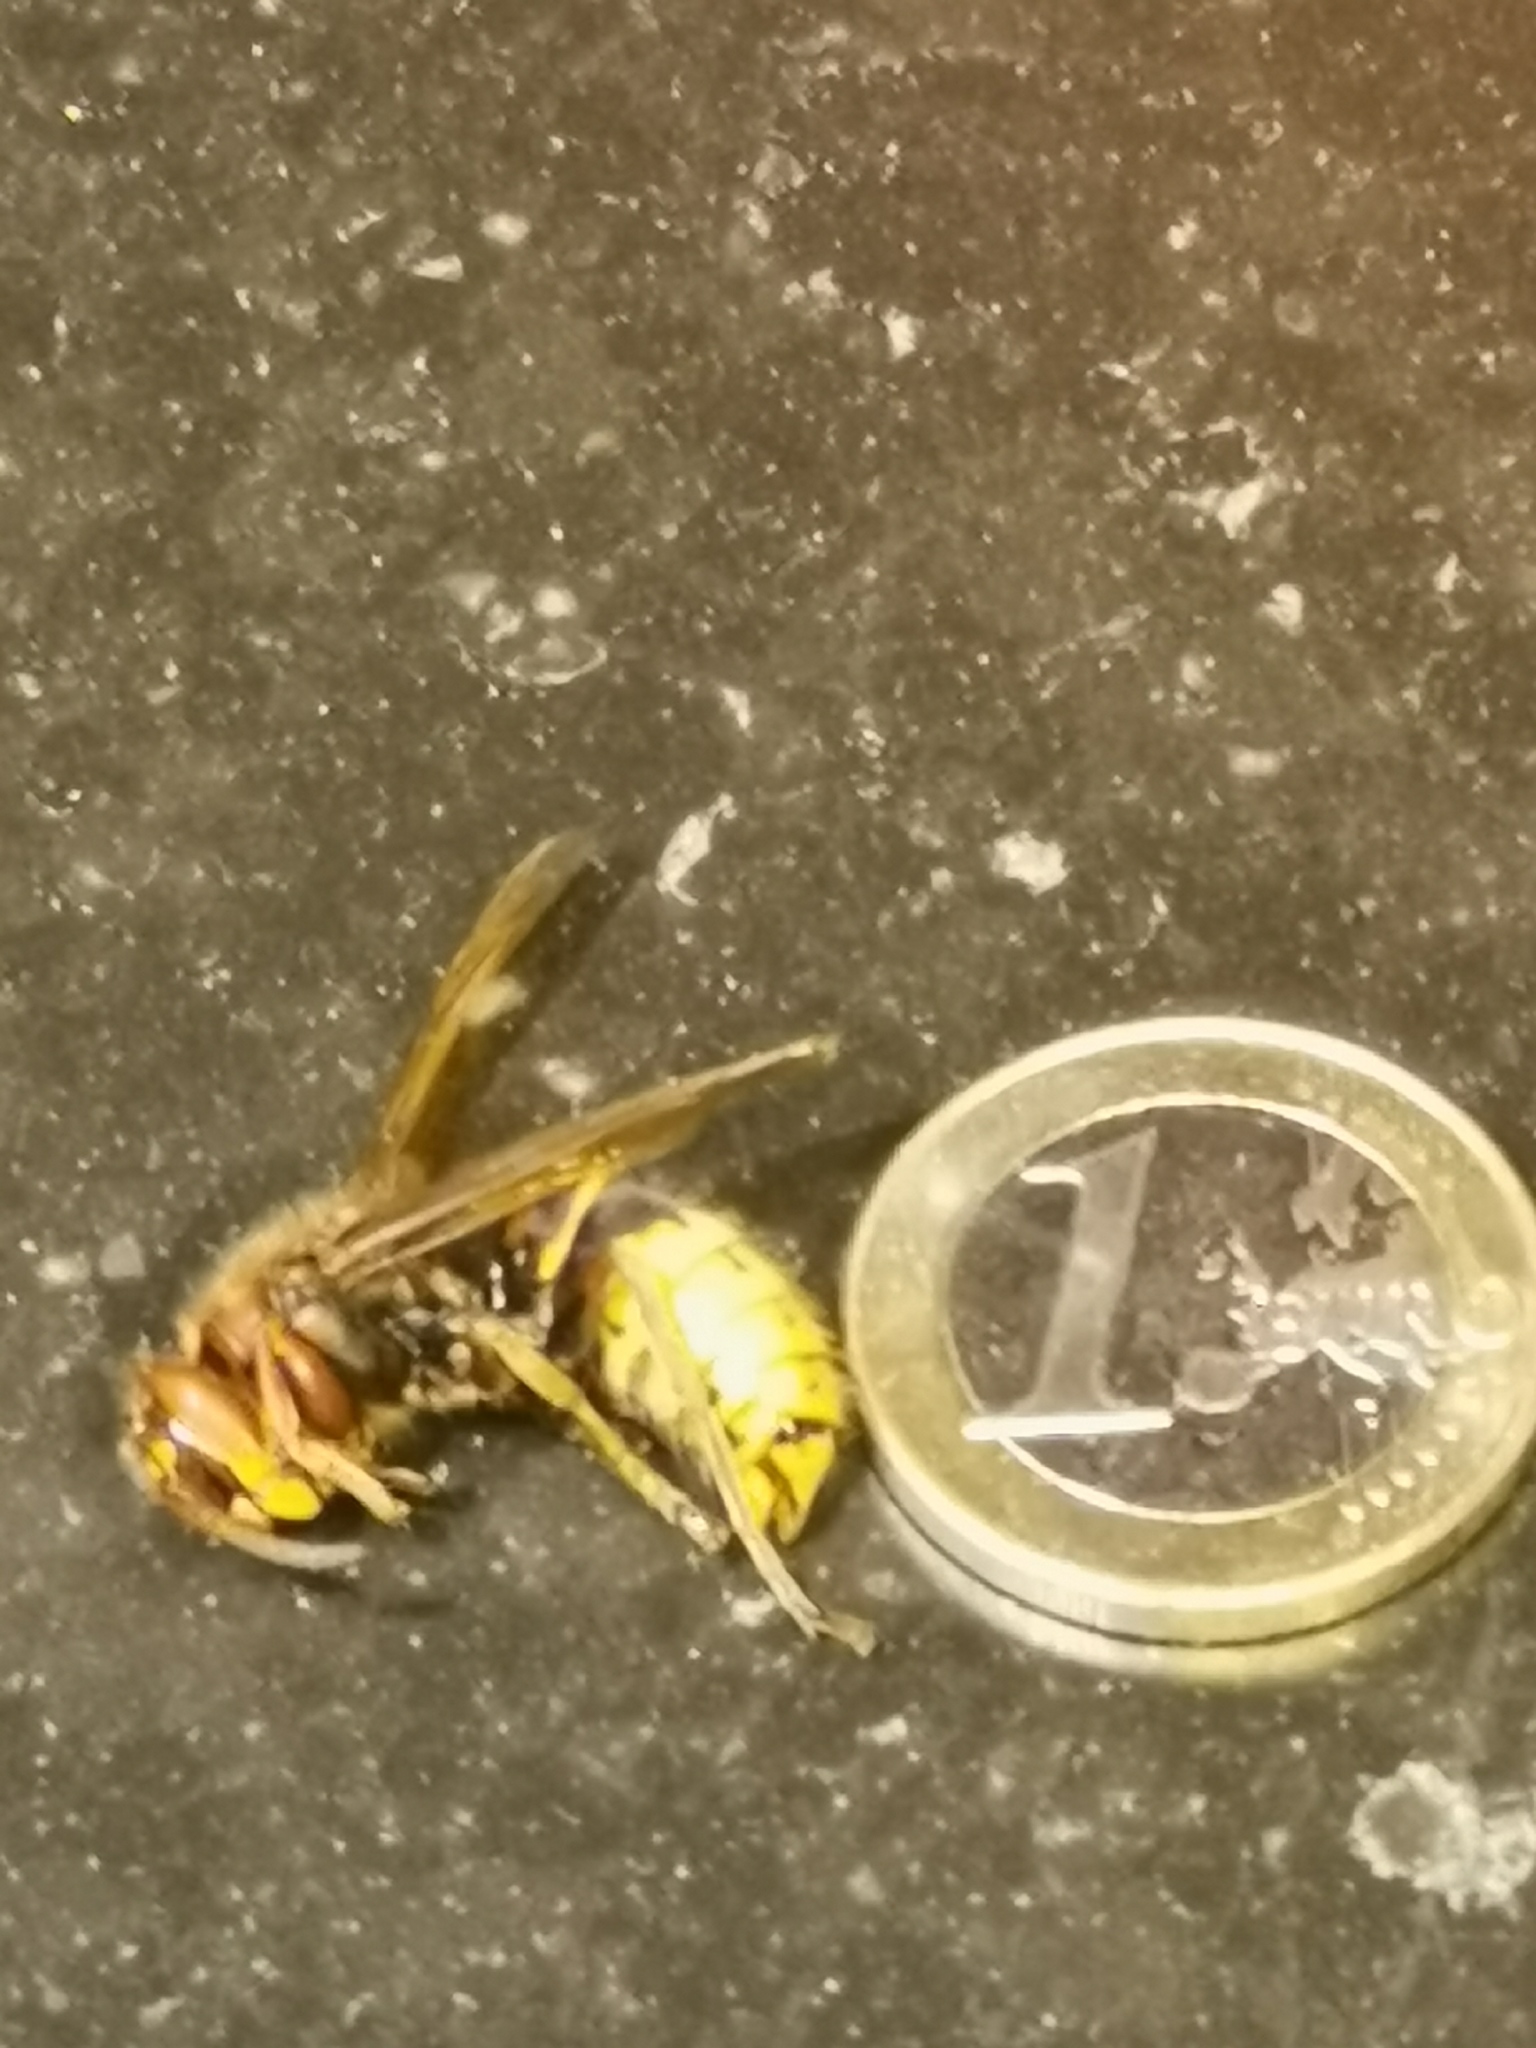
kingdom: Animalia
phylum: Arthropoda
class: Insecta
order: Hymenoptera
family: Vespidae
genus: Vespa
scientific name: Vespa crabro
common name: Hornet
